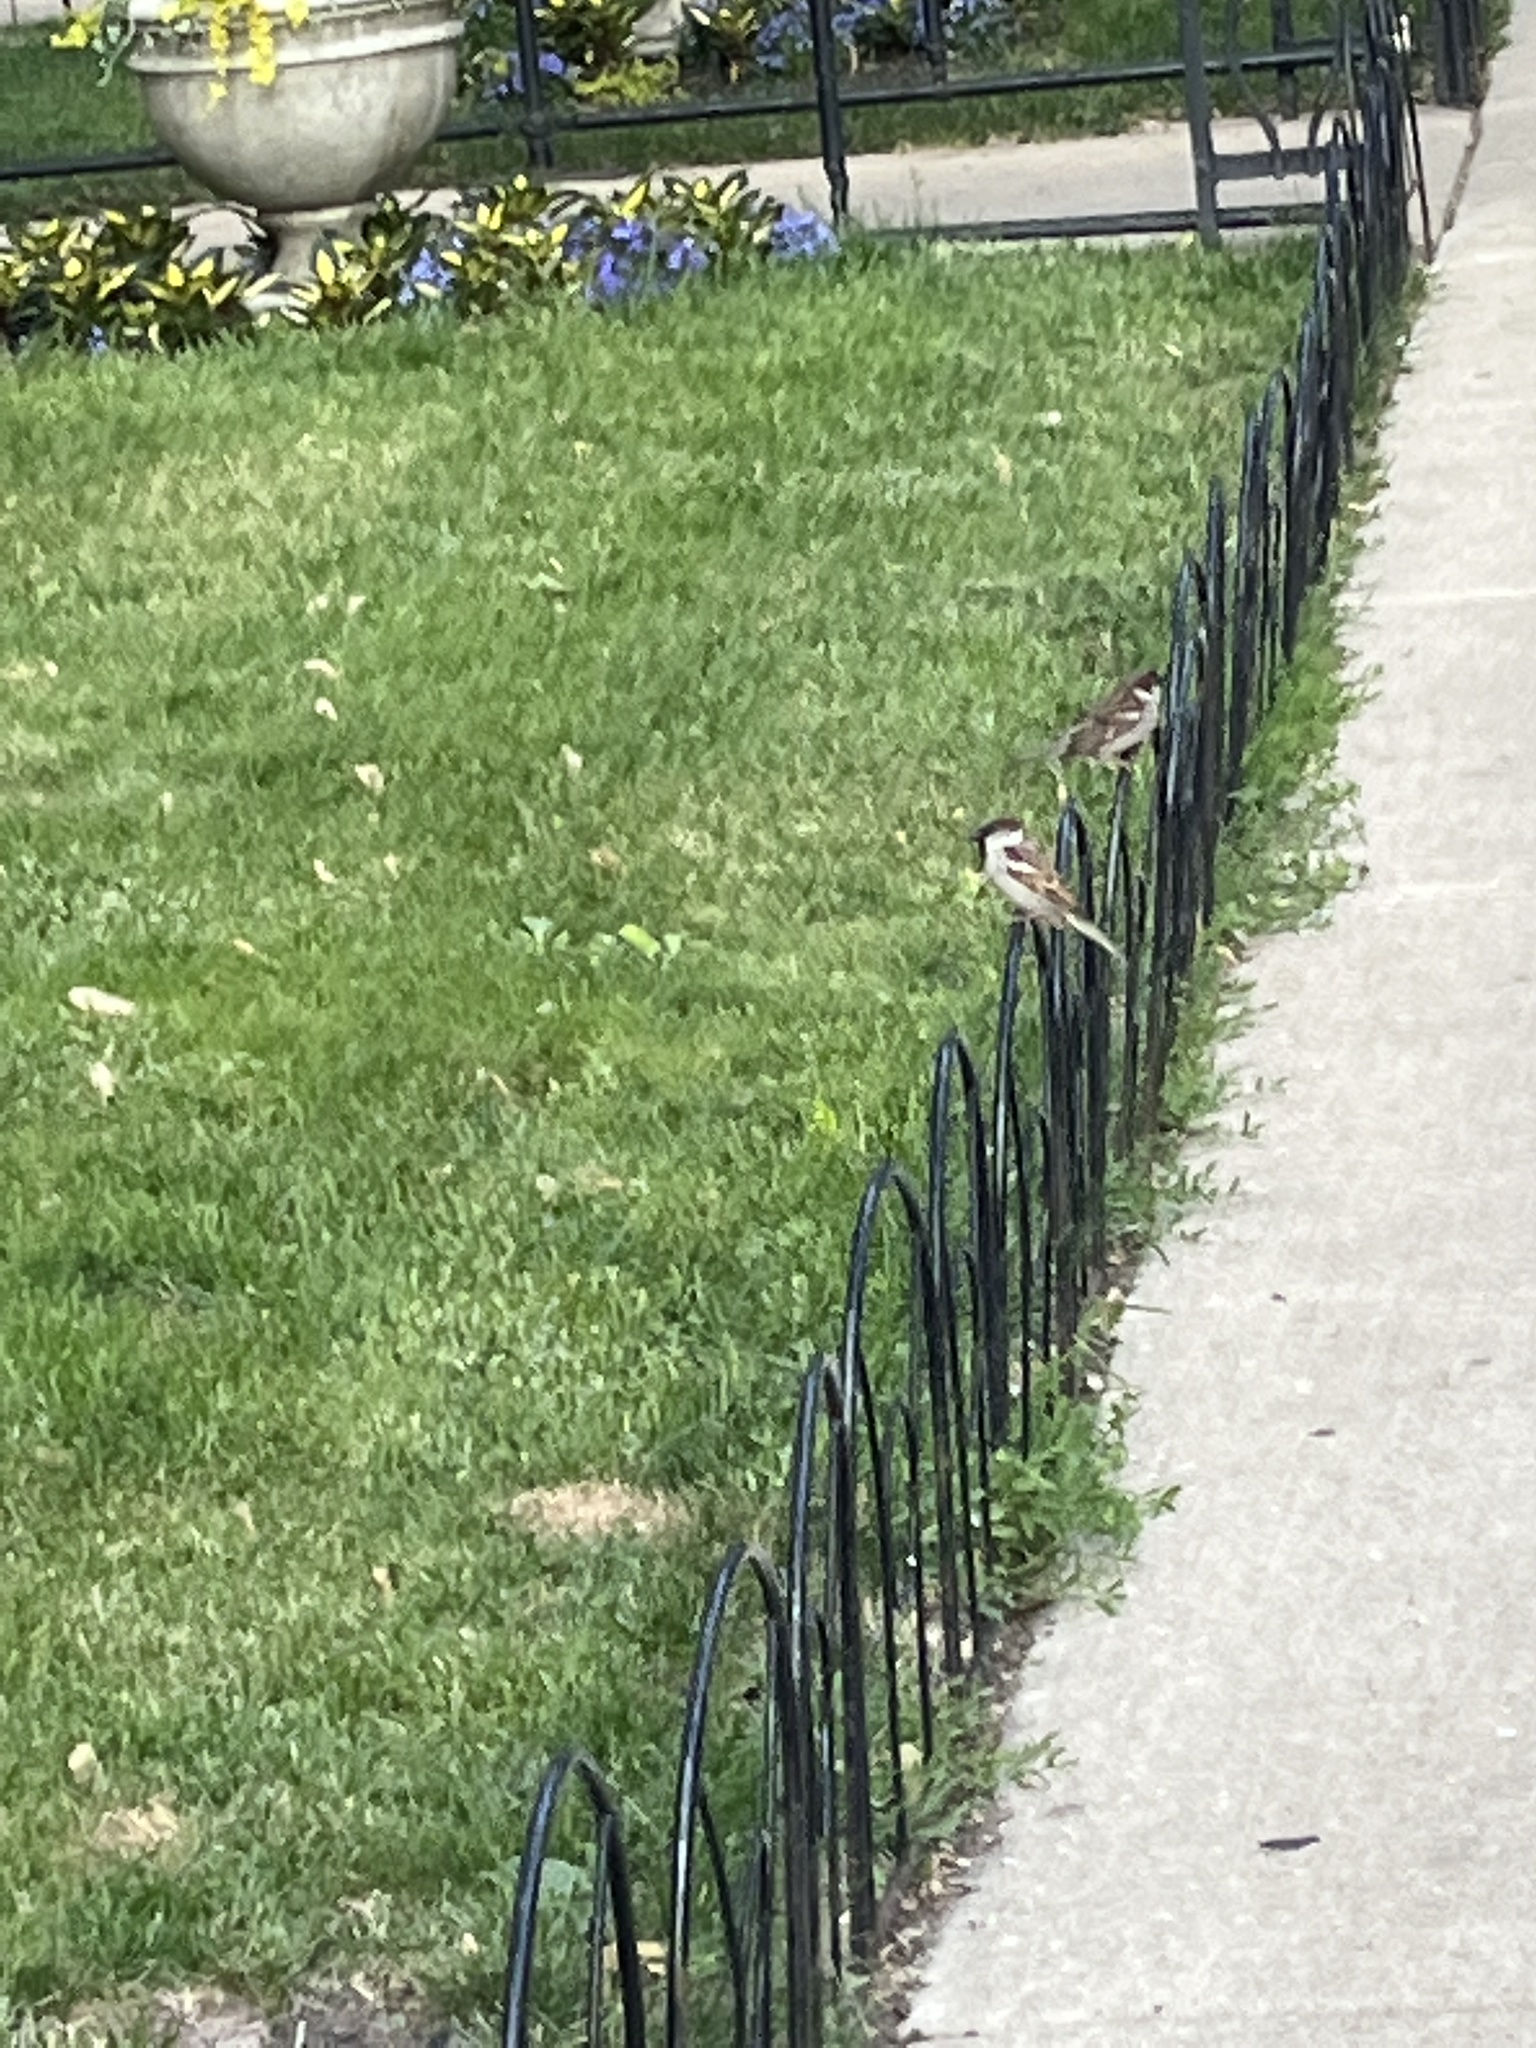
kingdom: Animalia
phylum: Chordata
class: Aves
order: Passeriformes
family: Passeridae
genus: Passer
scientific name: Passer domesticus
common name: House sparrow
